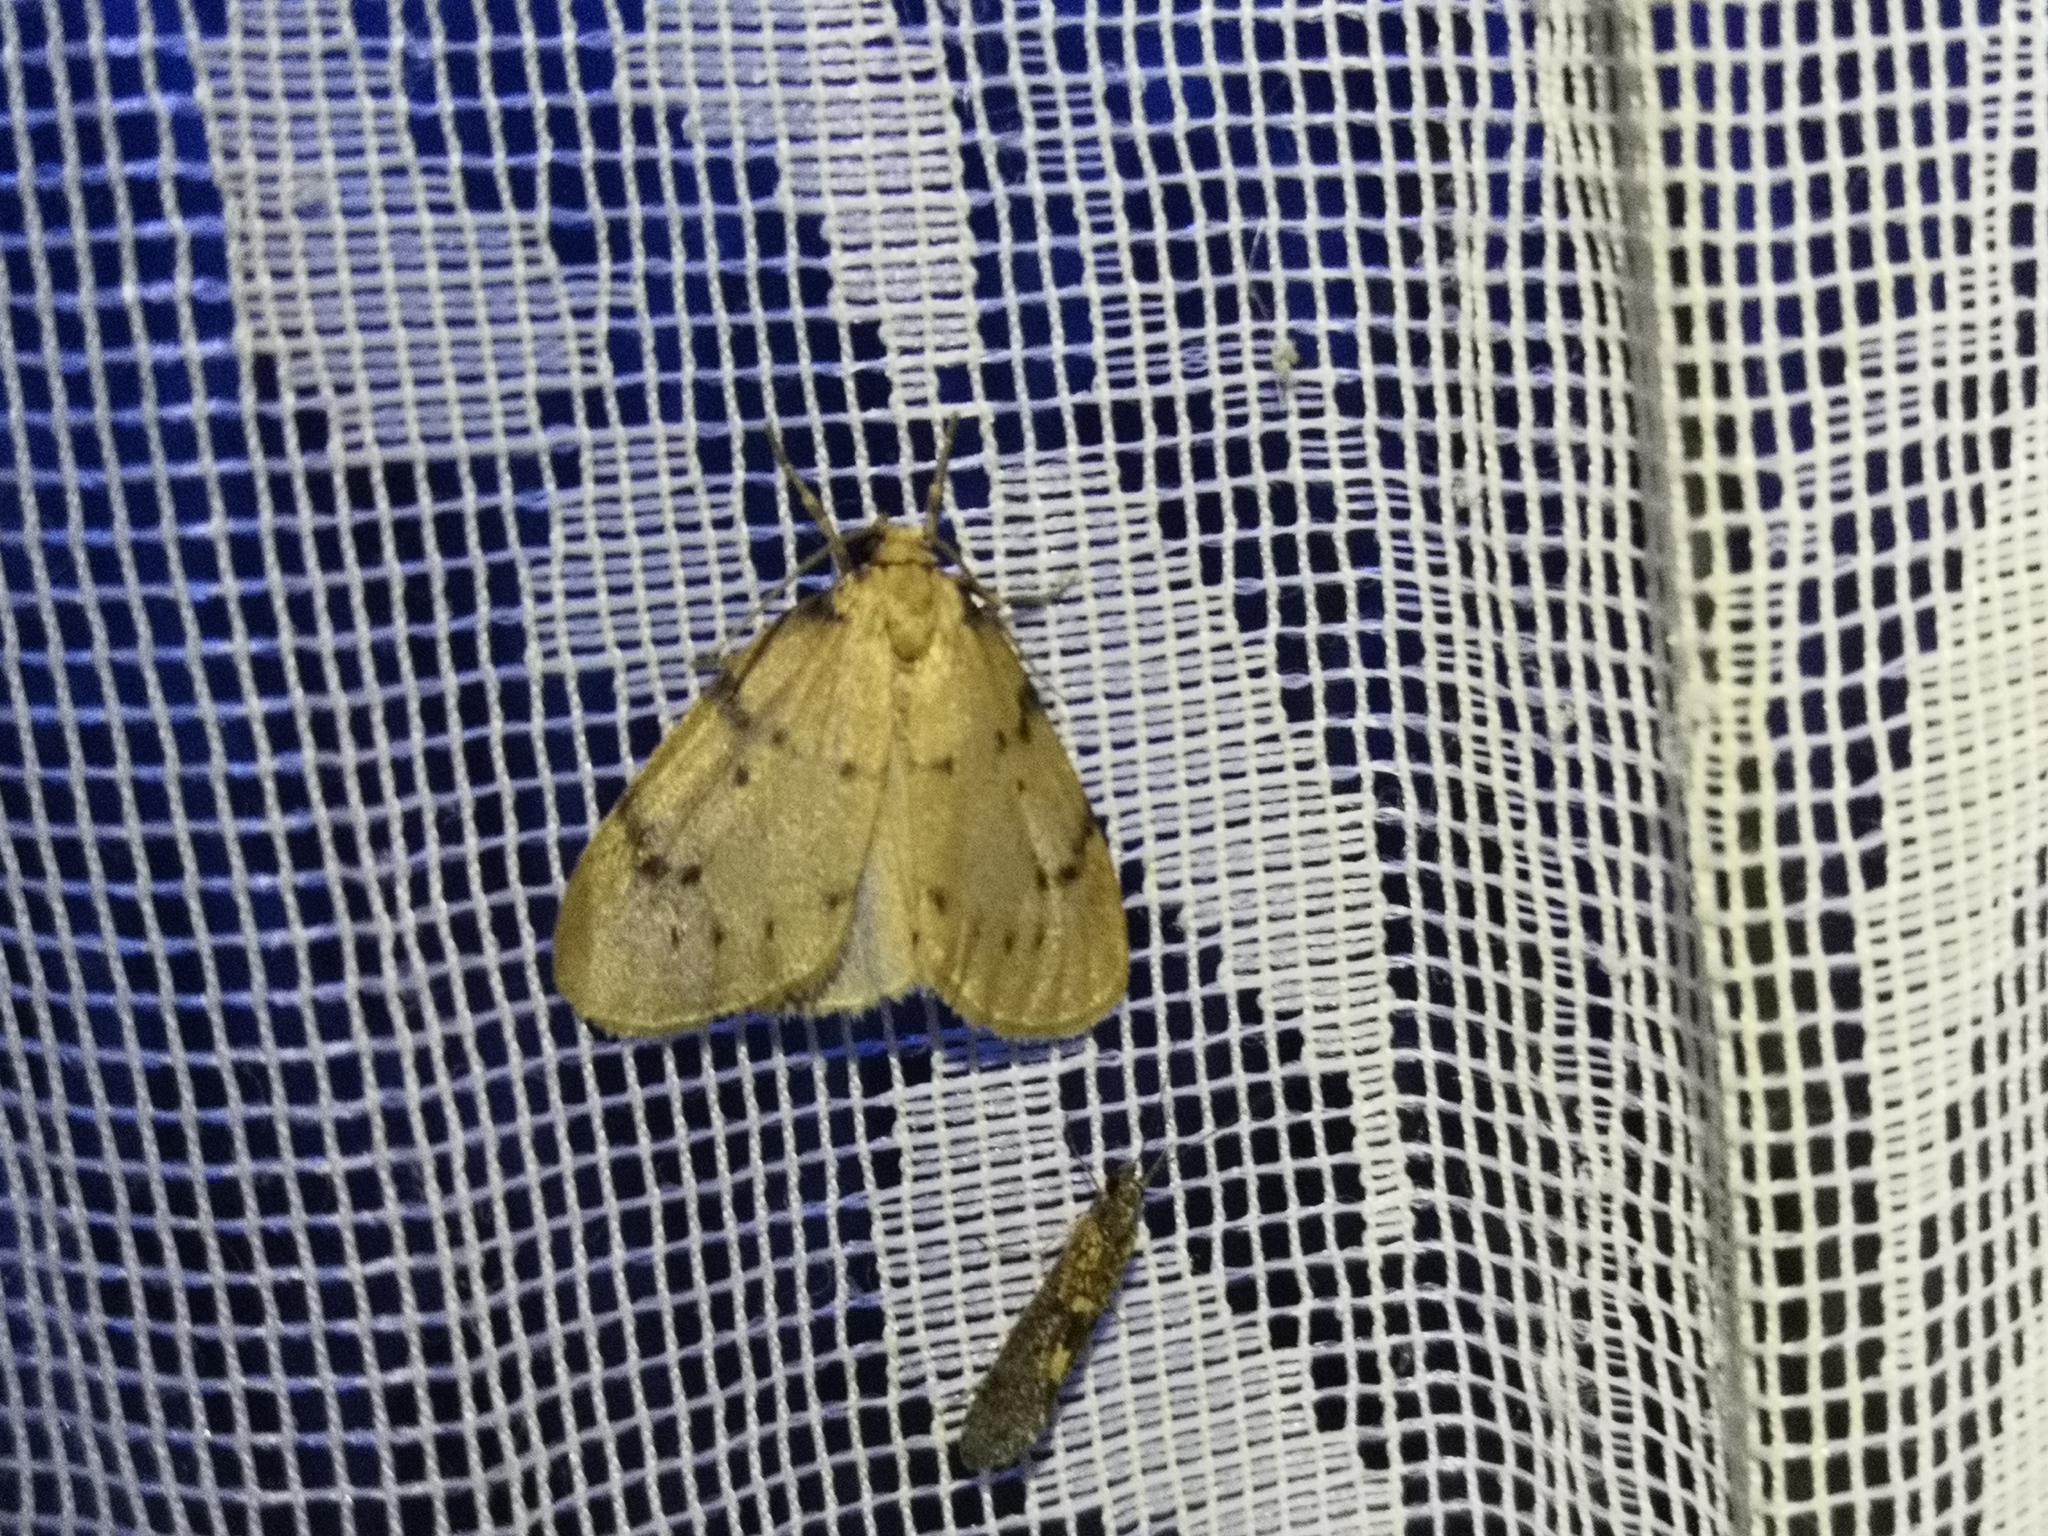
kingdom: Animalia
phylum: Arthropoda
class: Insecta
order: Lepidoptera
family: Erebidae
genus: Paidia
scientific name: Paidia rica
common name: Glaucous muslin
